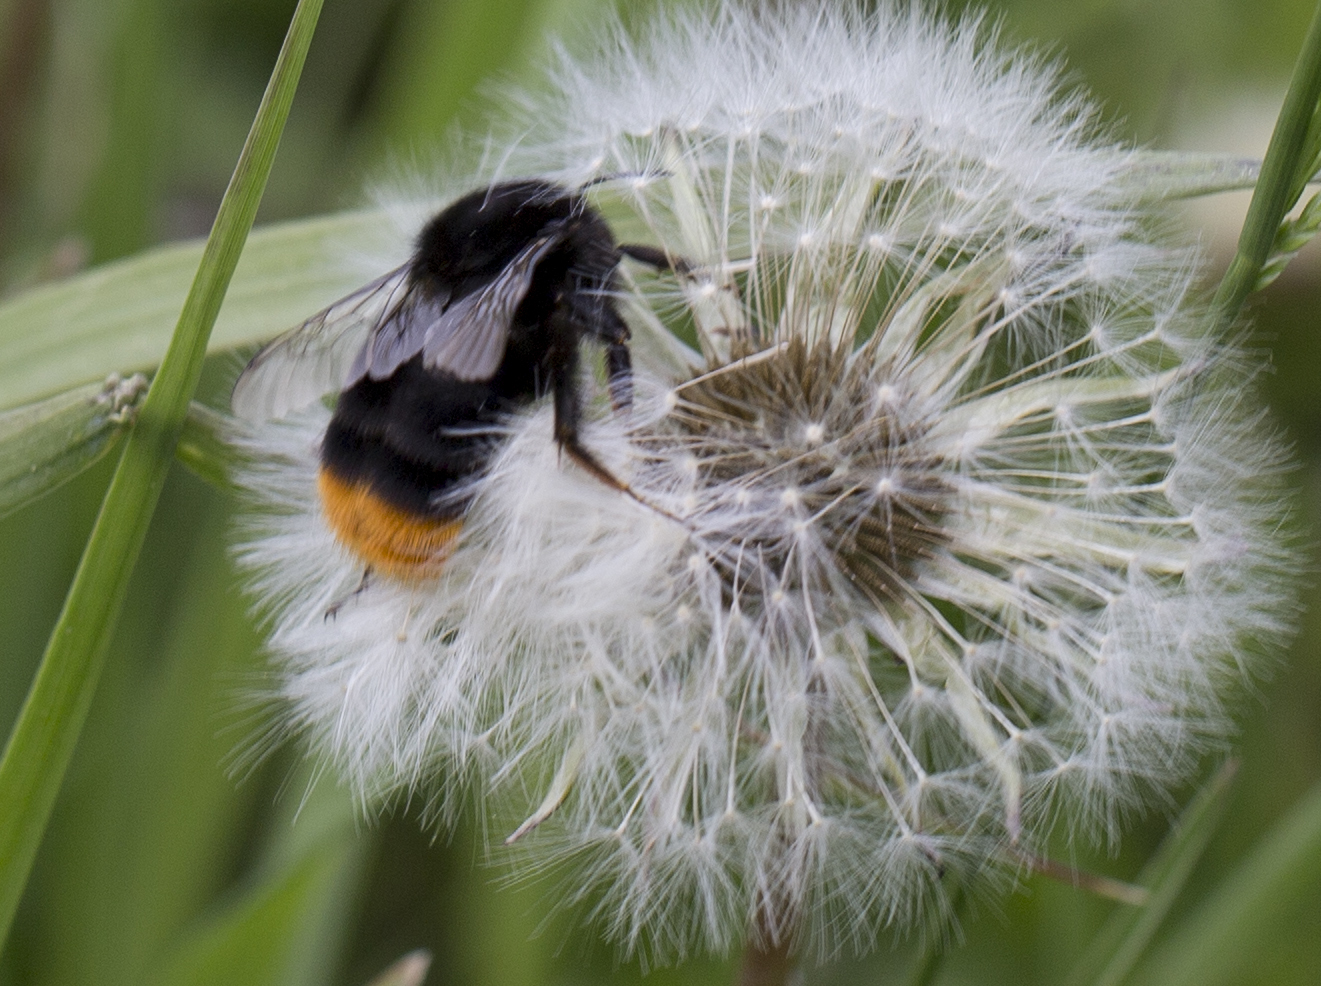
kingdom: Animalia
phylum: Arthropoda
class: Insecta
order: Hymenoptera
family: Apidae
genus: Bombus
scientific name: Bombus lapidarius
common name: Large red-tailed humble-bee
